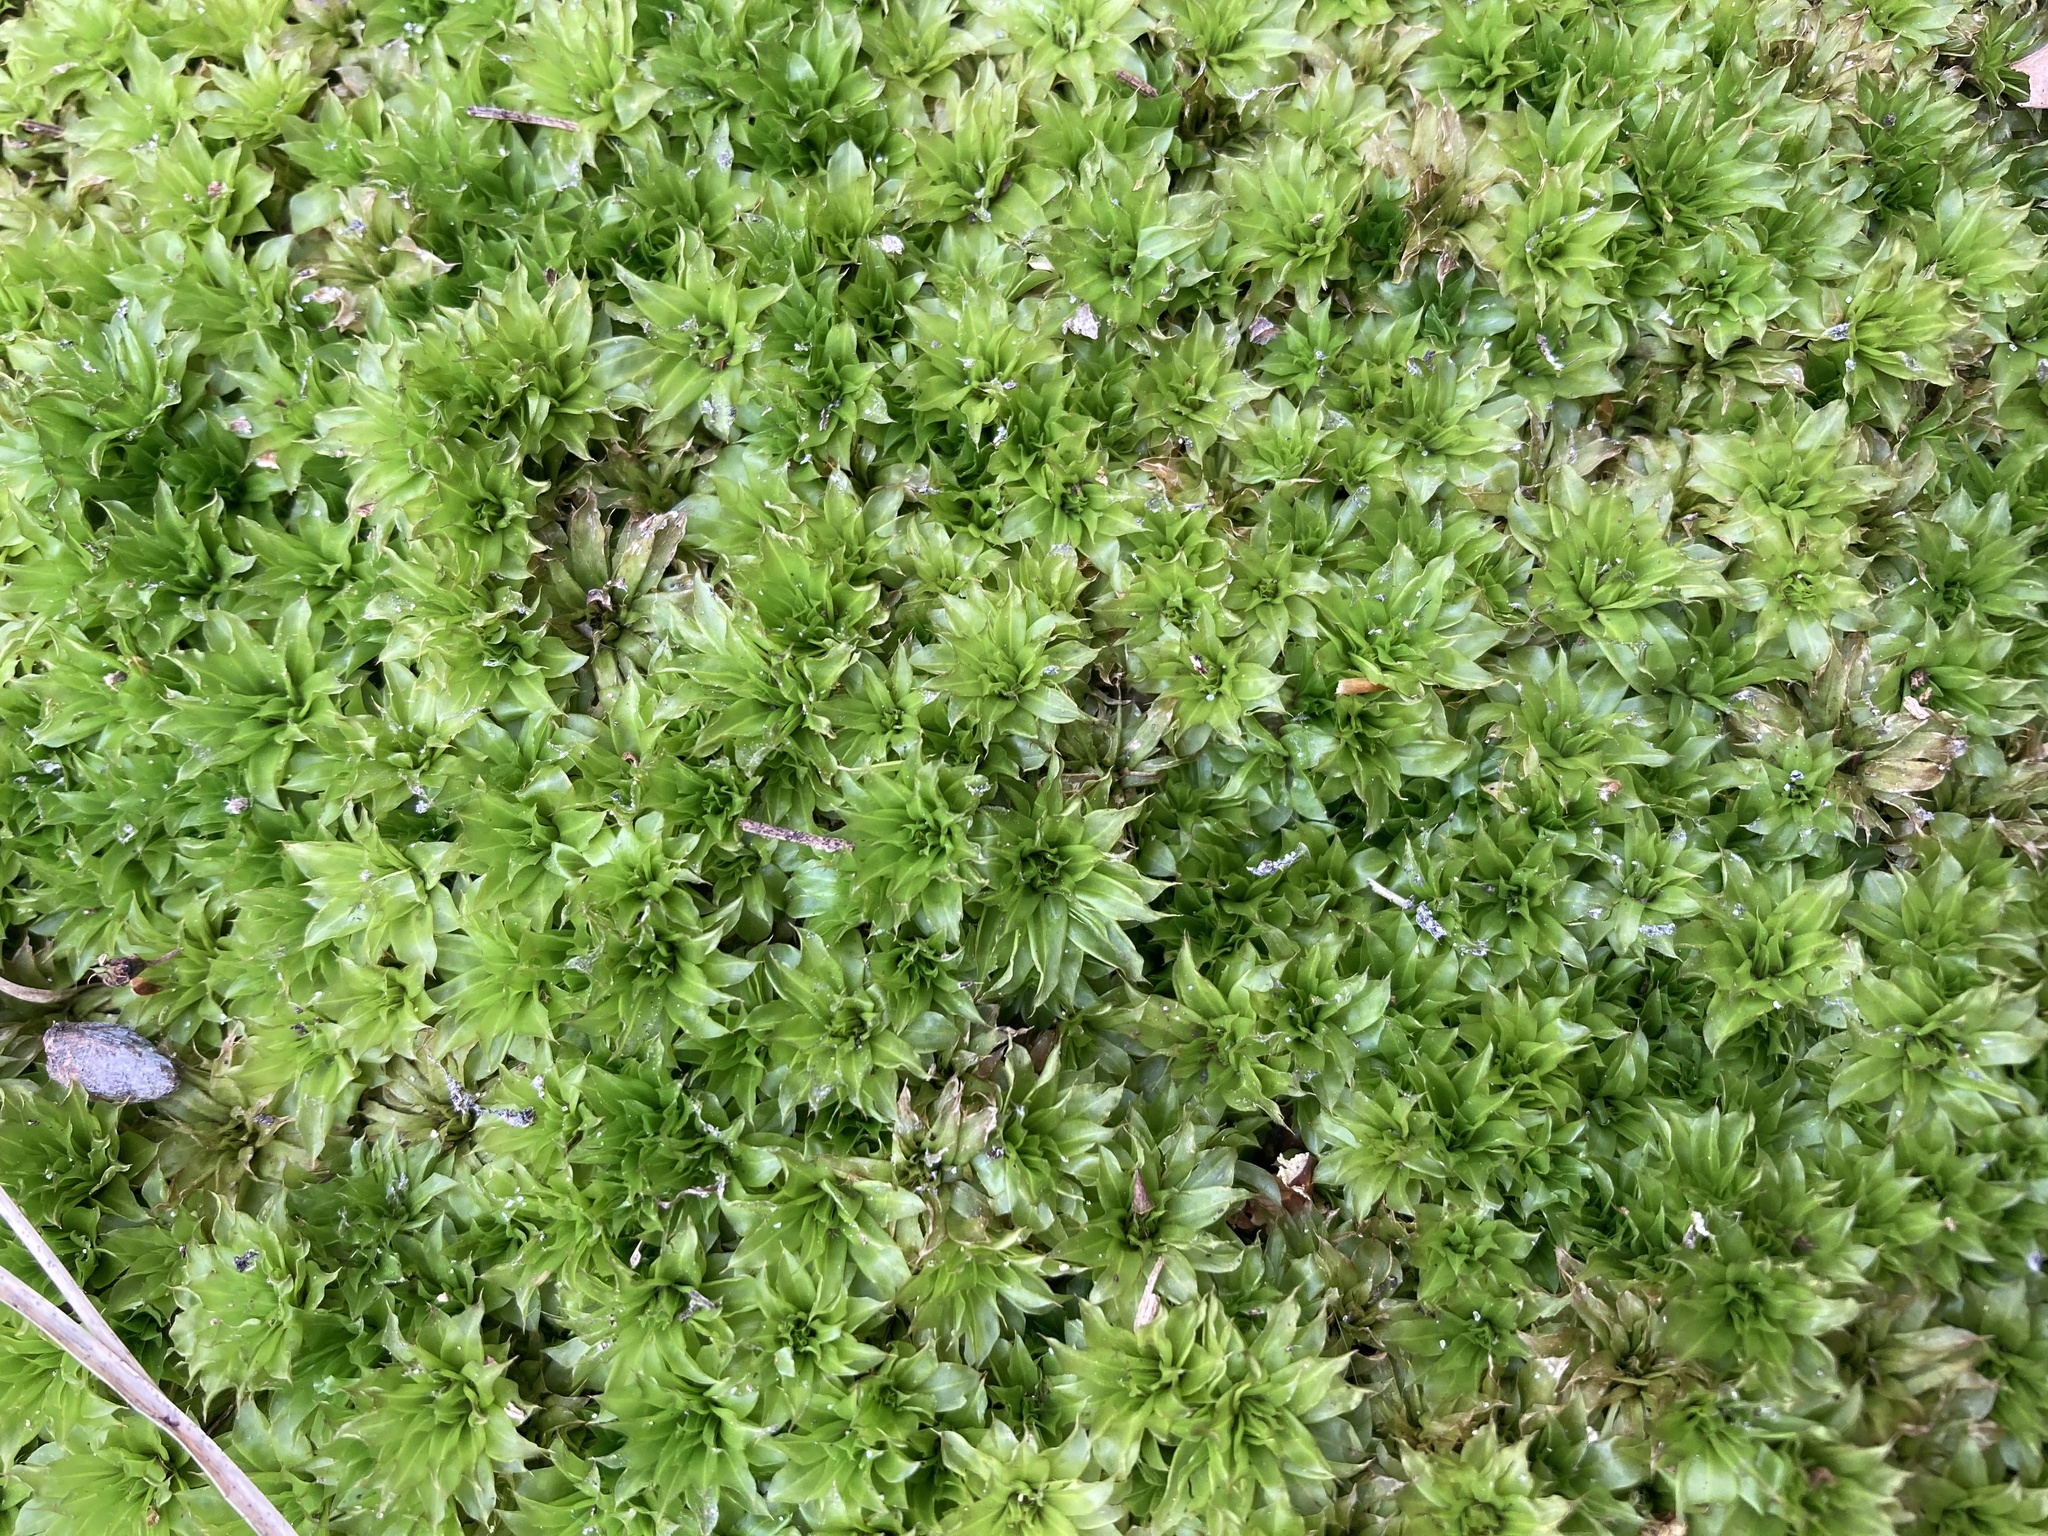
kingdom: Plantae
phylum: Bryophyta
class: Bryopsida
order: Bryales
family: Bryaceae
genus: Rhodobryum
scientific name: Rhodobryum ontariense
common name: Ontario rhodobryum moss
